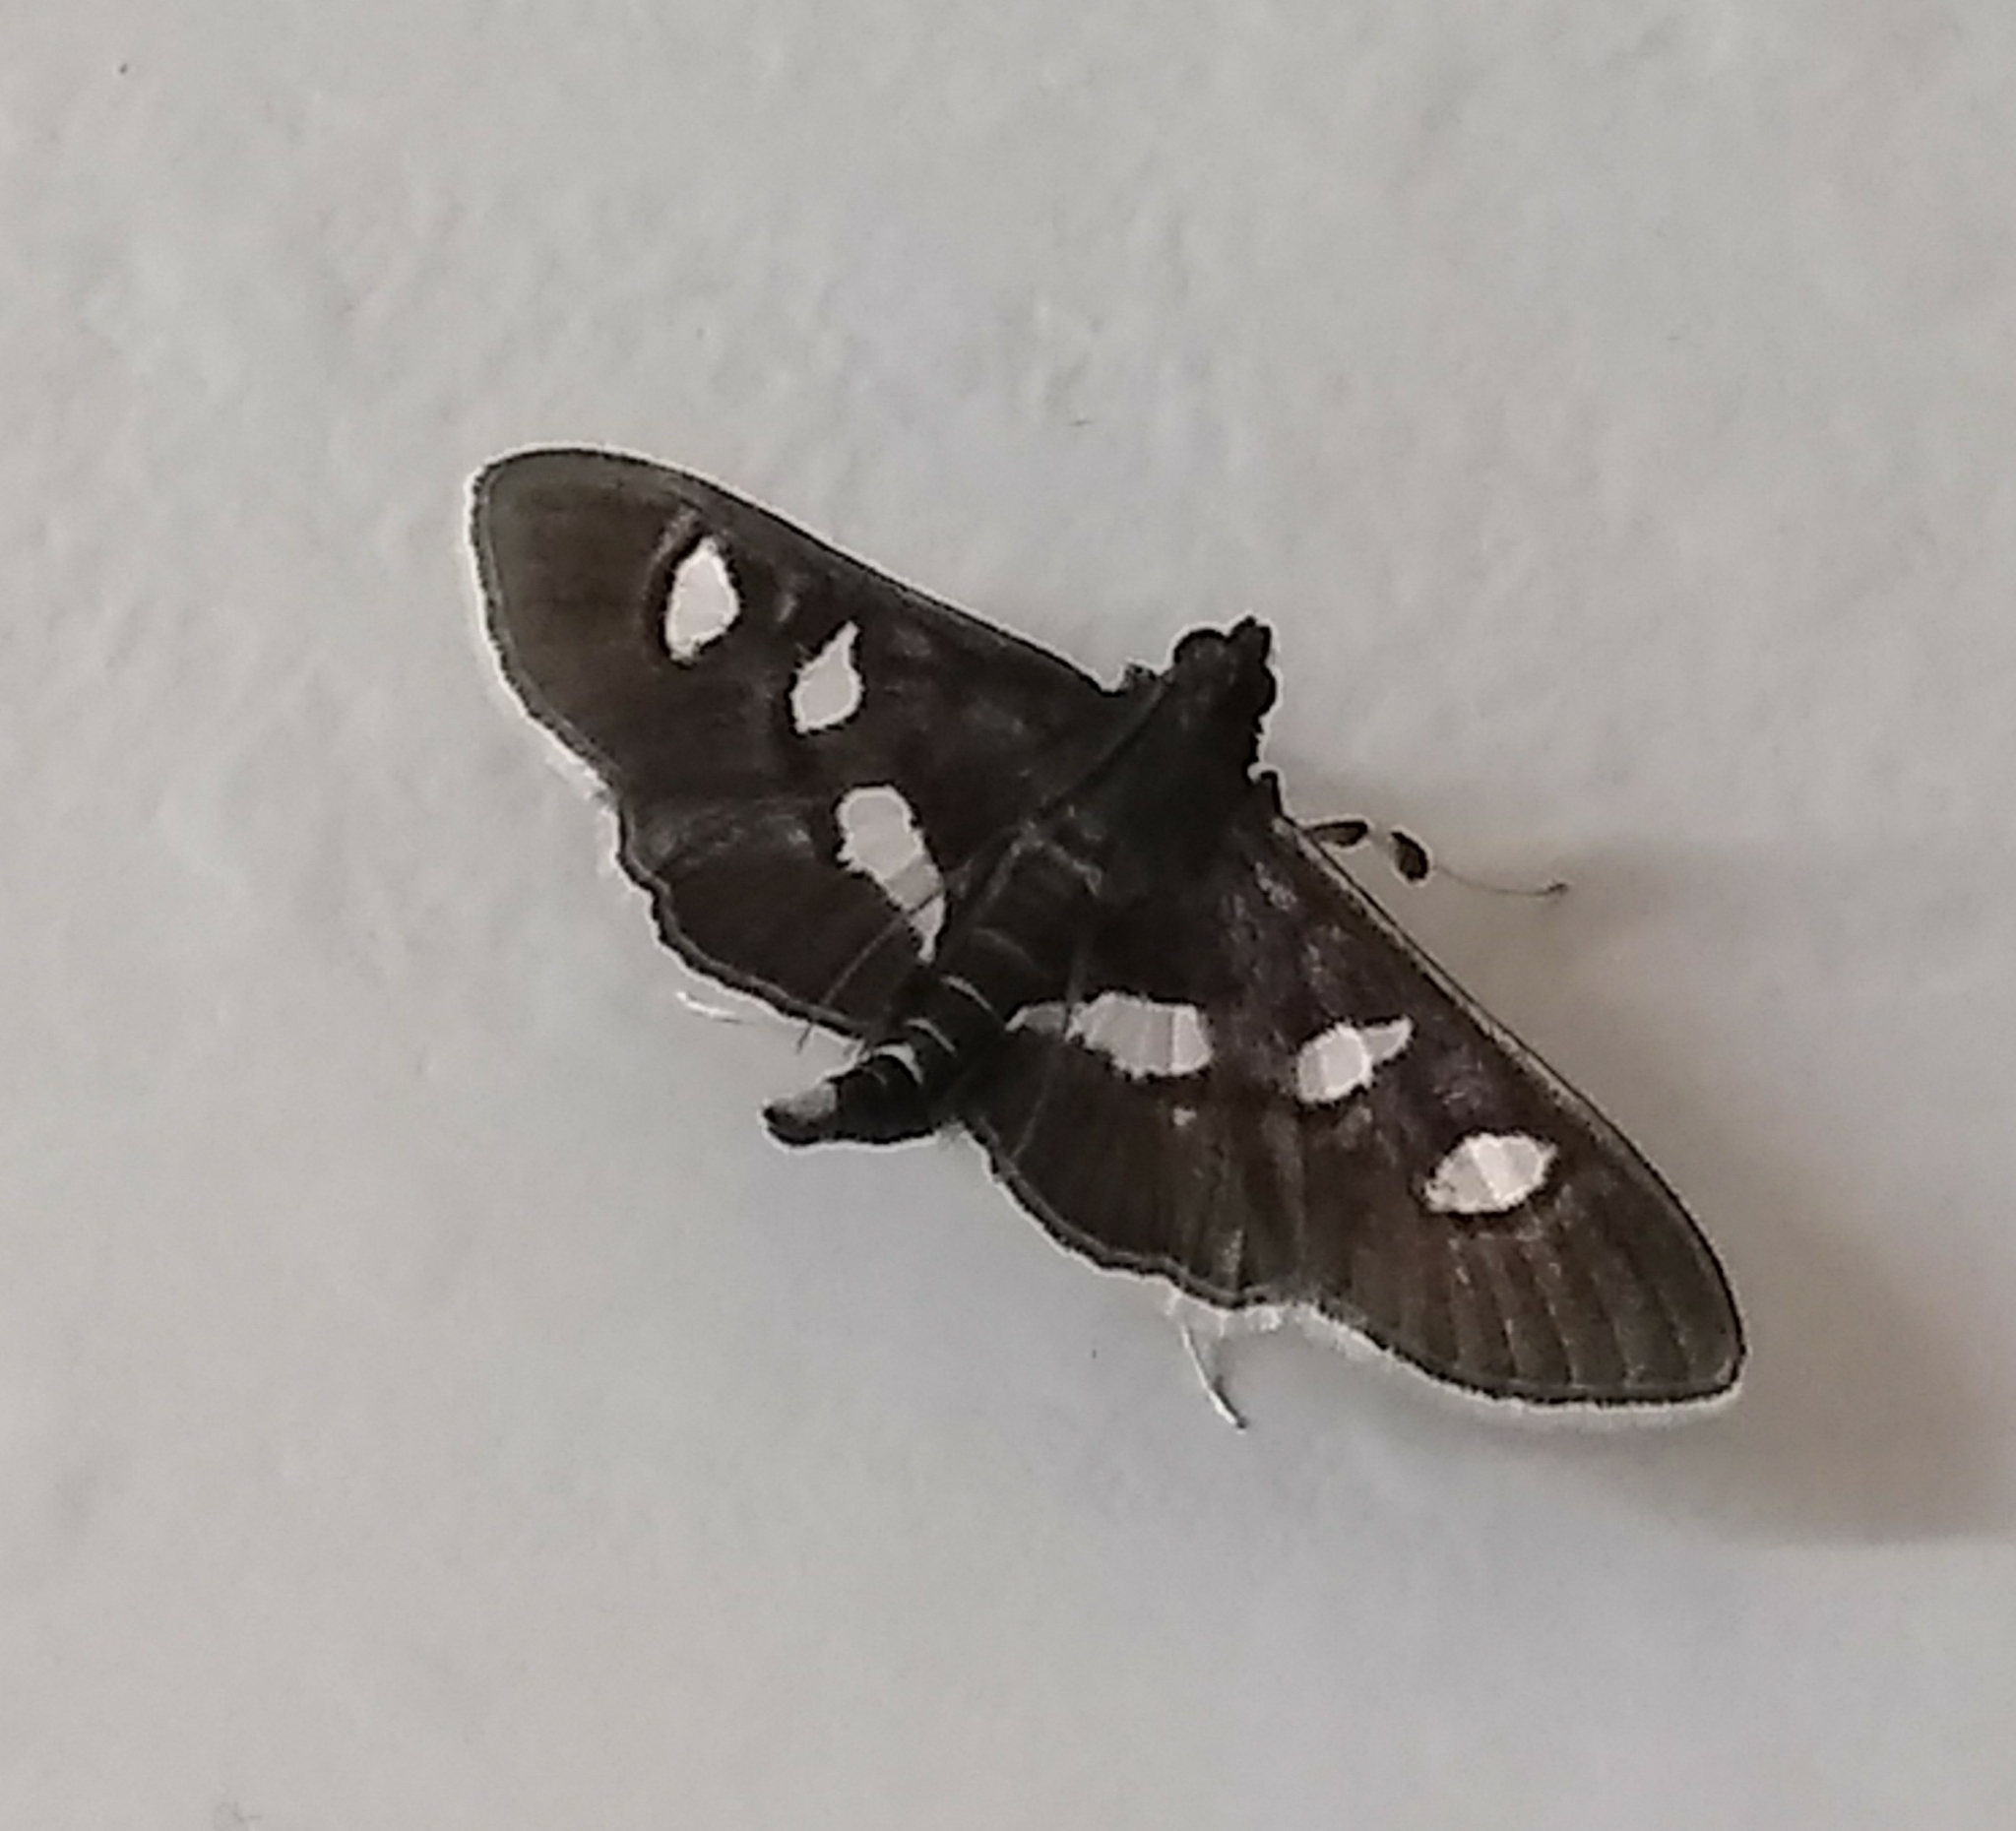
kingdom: Animalia
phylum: Arthropoda
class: Insecta
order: Lepidoptera
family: Crambidae
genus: Desmia
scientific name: Desmia
